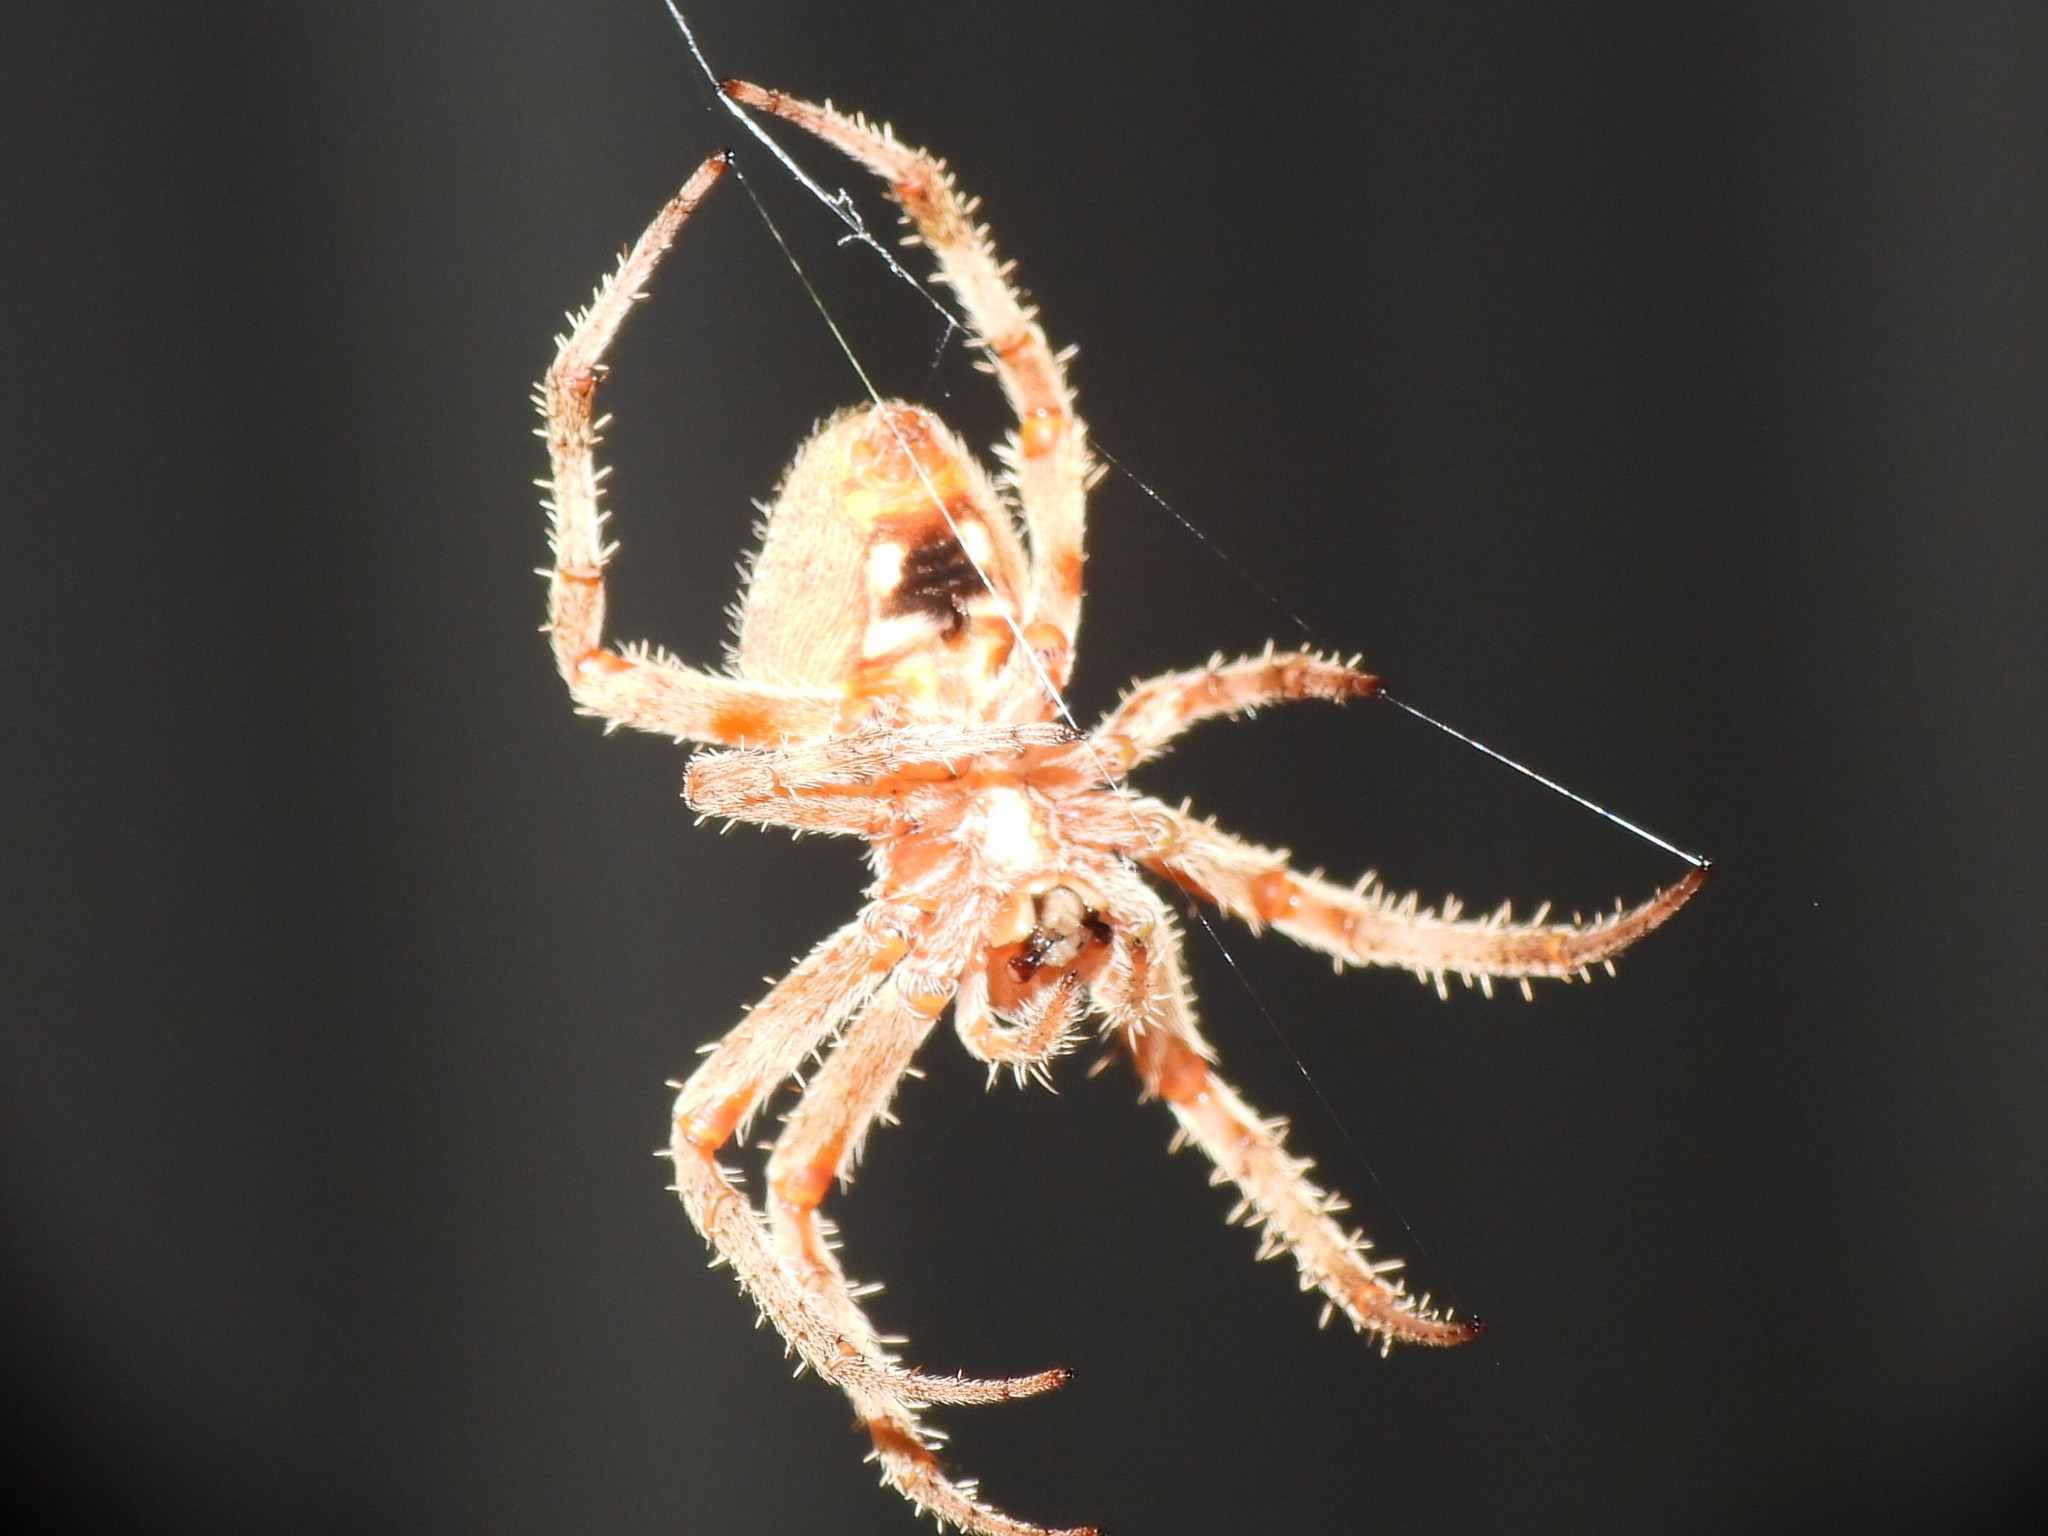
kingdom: Animalia
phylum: Arthropoda
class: Arachnida
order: Araneae
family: Araneidae
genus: Neoscona
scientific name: Neoscona crucifera
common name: Spotted orbweaver
